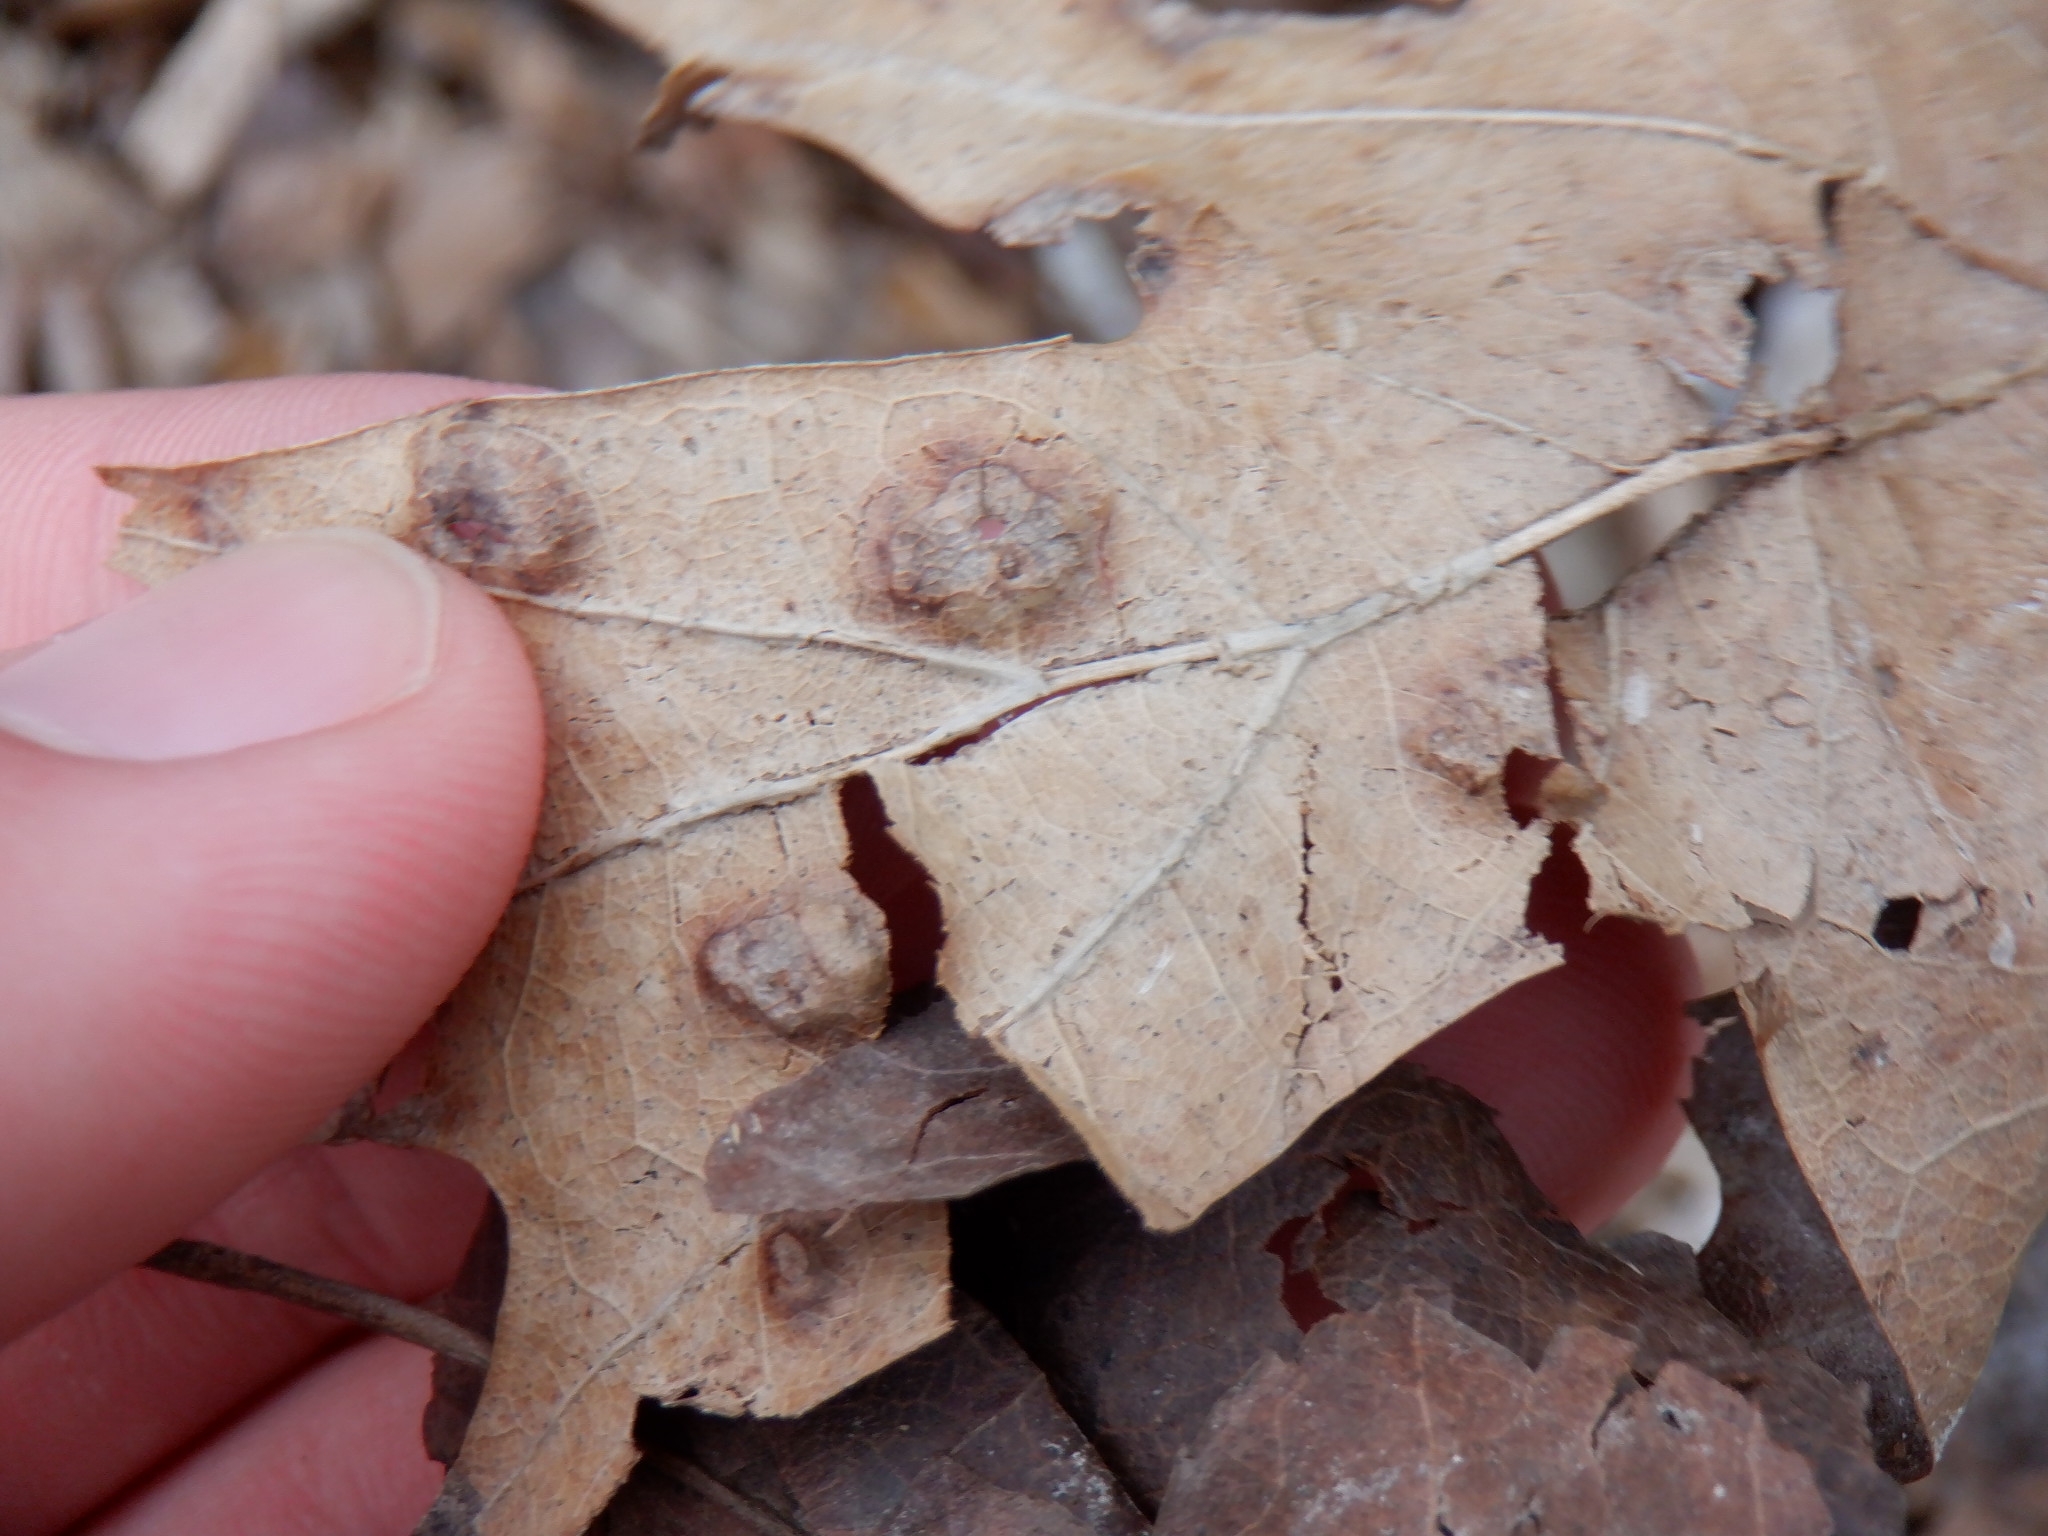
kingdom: Fungi
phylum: Ascomycota
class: Taphrinomycetes
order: Taphrinales
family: Taphrinaceae
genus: Taphrina
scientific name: Taphrina caerulescens
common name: Oak leaf blister
